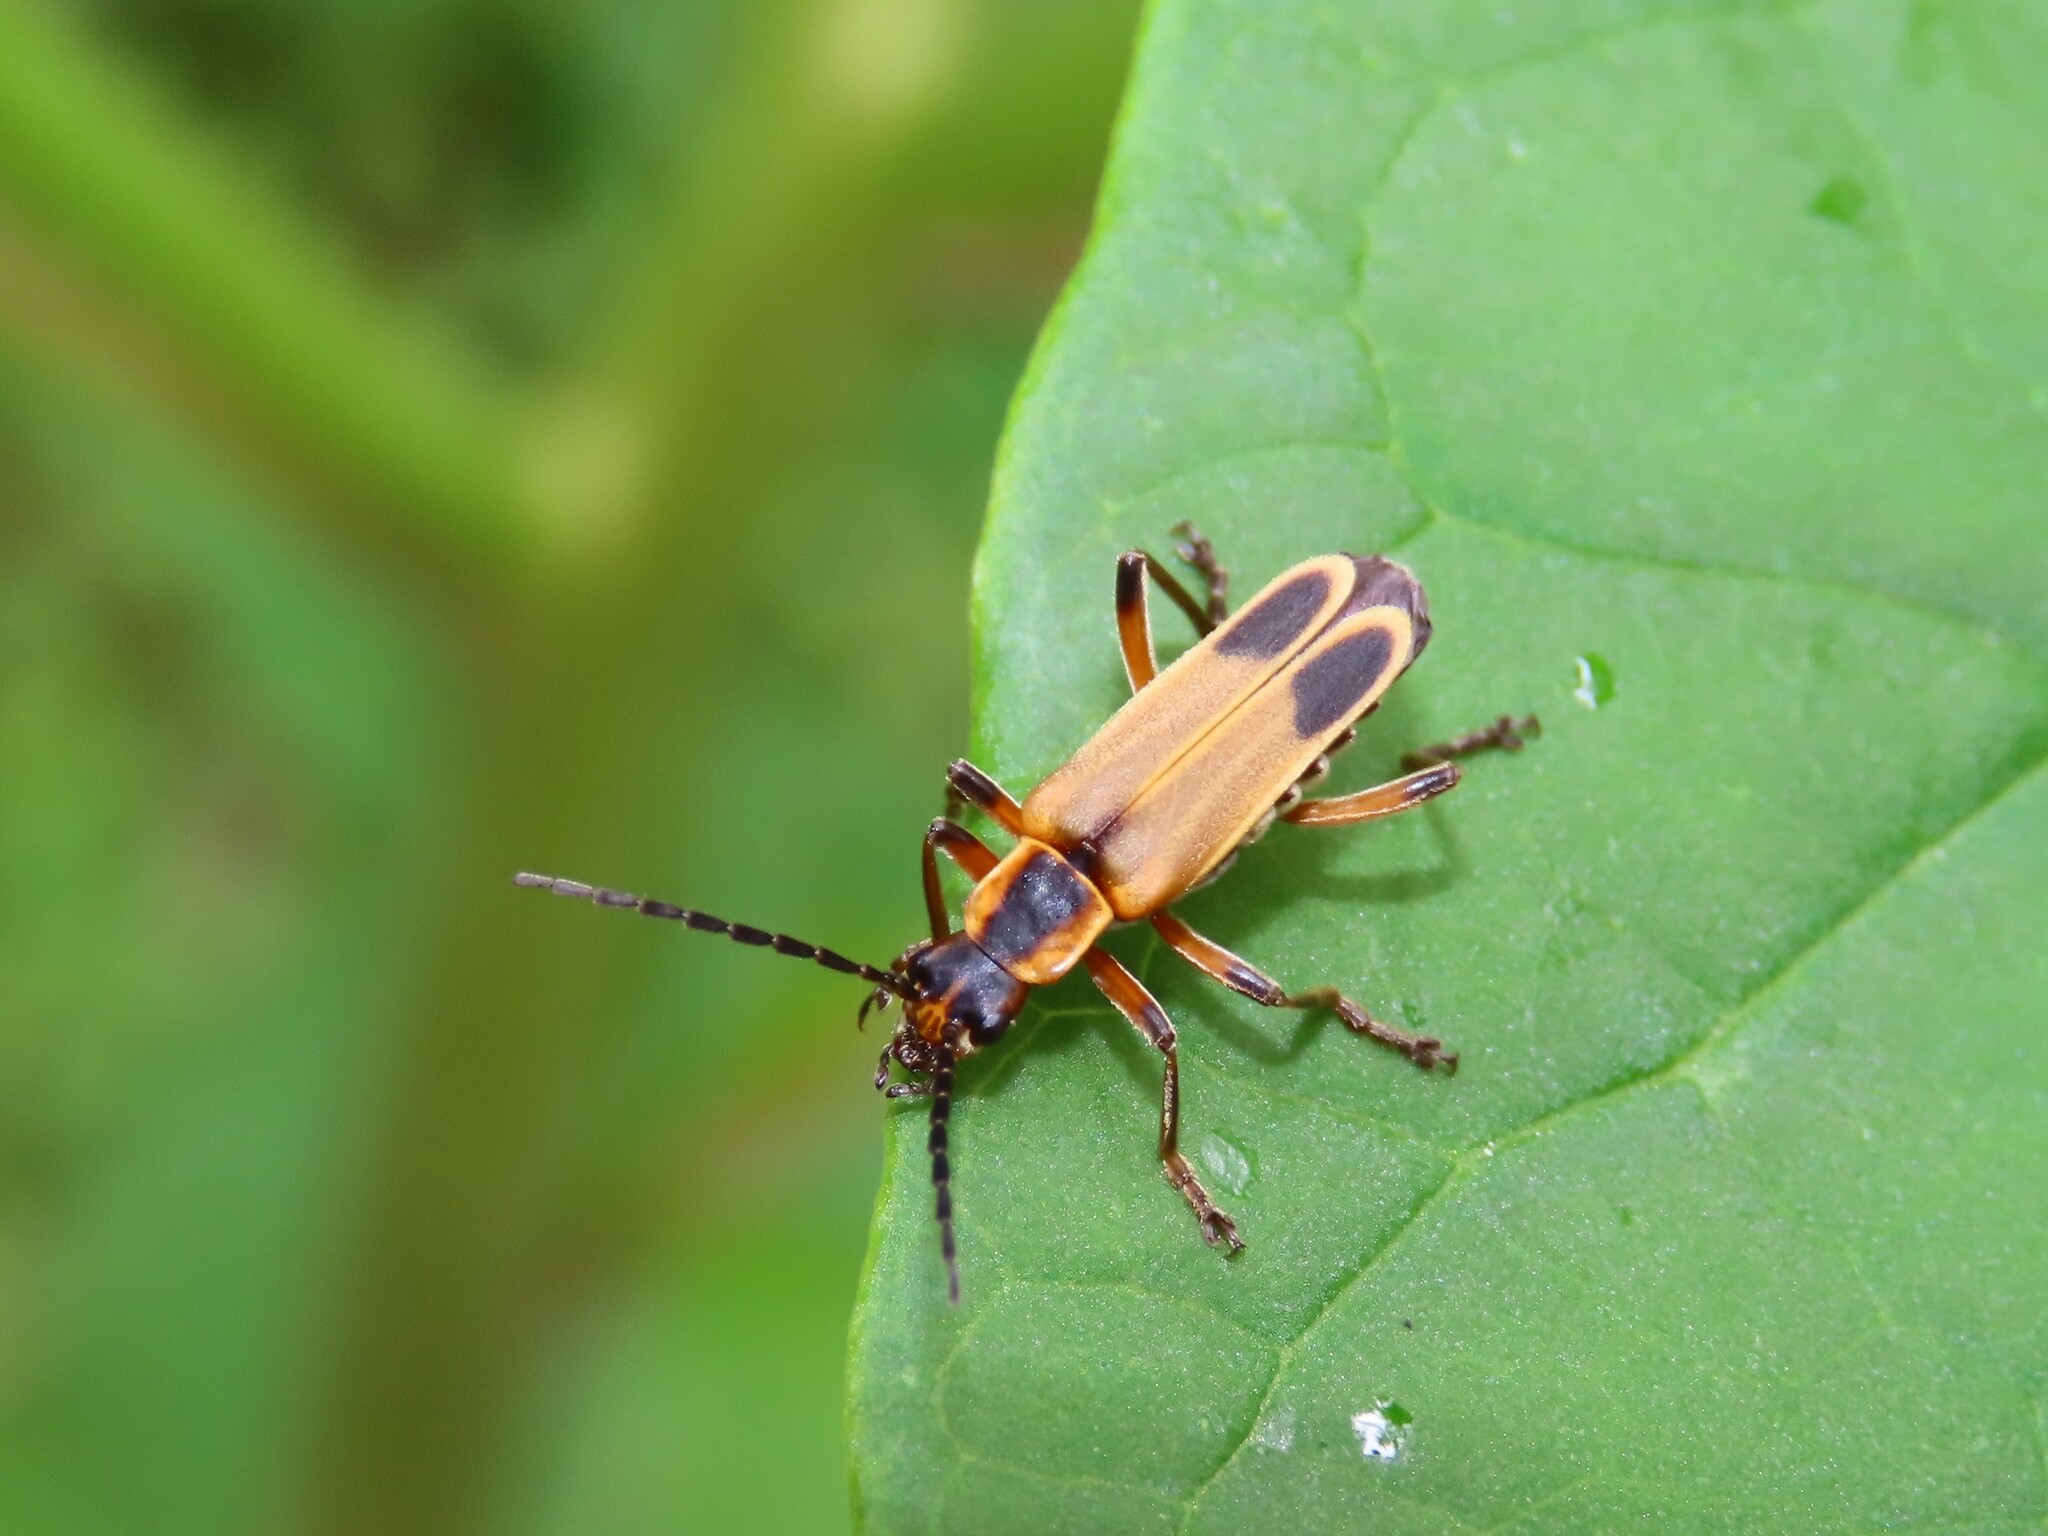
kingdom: Animalia
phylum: Arthropoda
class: Insecta
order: Coleoptera
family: Cantharidae
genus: Chauliognathus
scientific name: Chauliognathus marginatus
